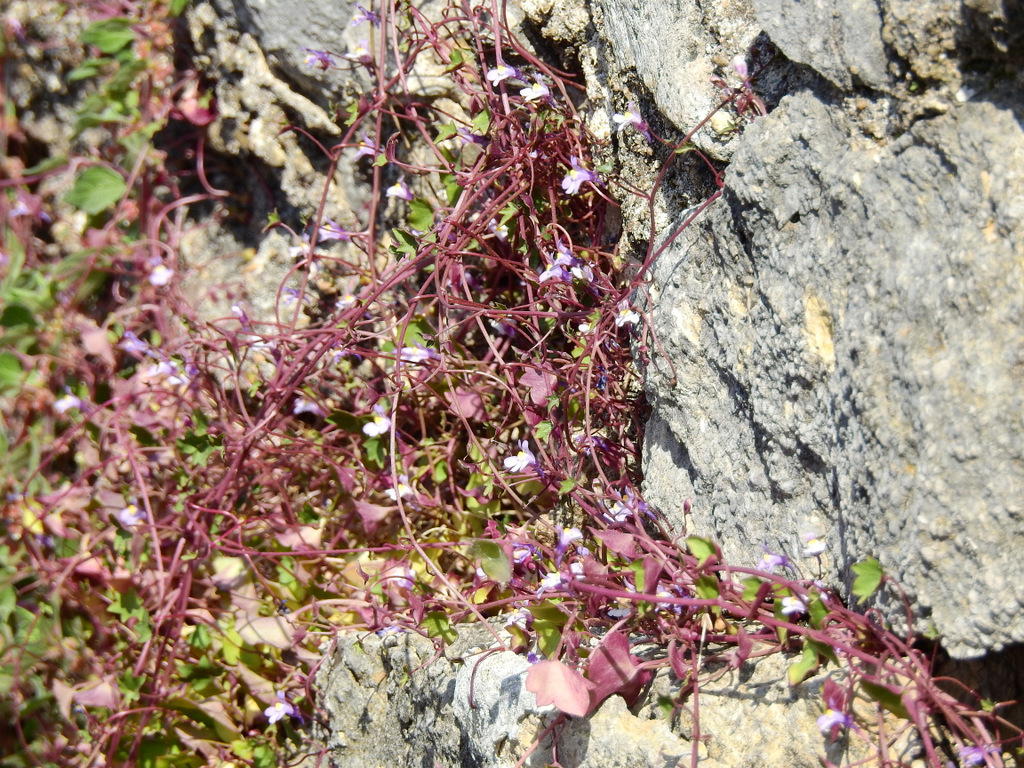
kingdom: Plantae
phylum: Tracheophyta
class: Magnoliopsida
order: Lamiales
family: Plantaginaceae
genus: Cymbalaria
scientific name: Cymbalaria muralis
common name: Ivy-leaved toadflax
